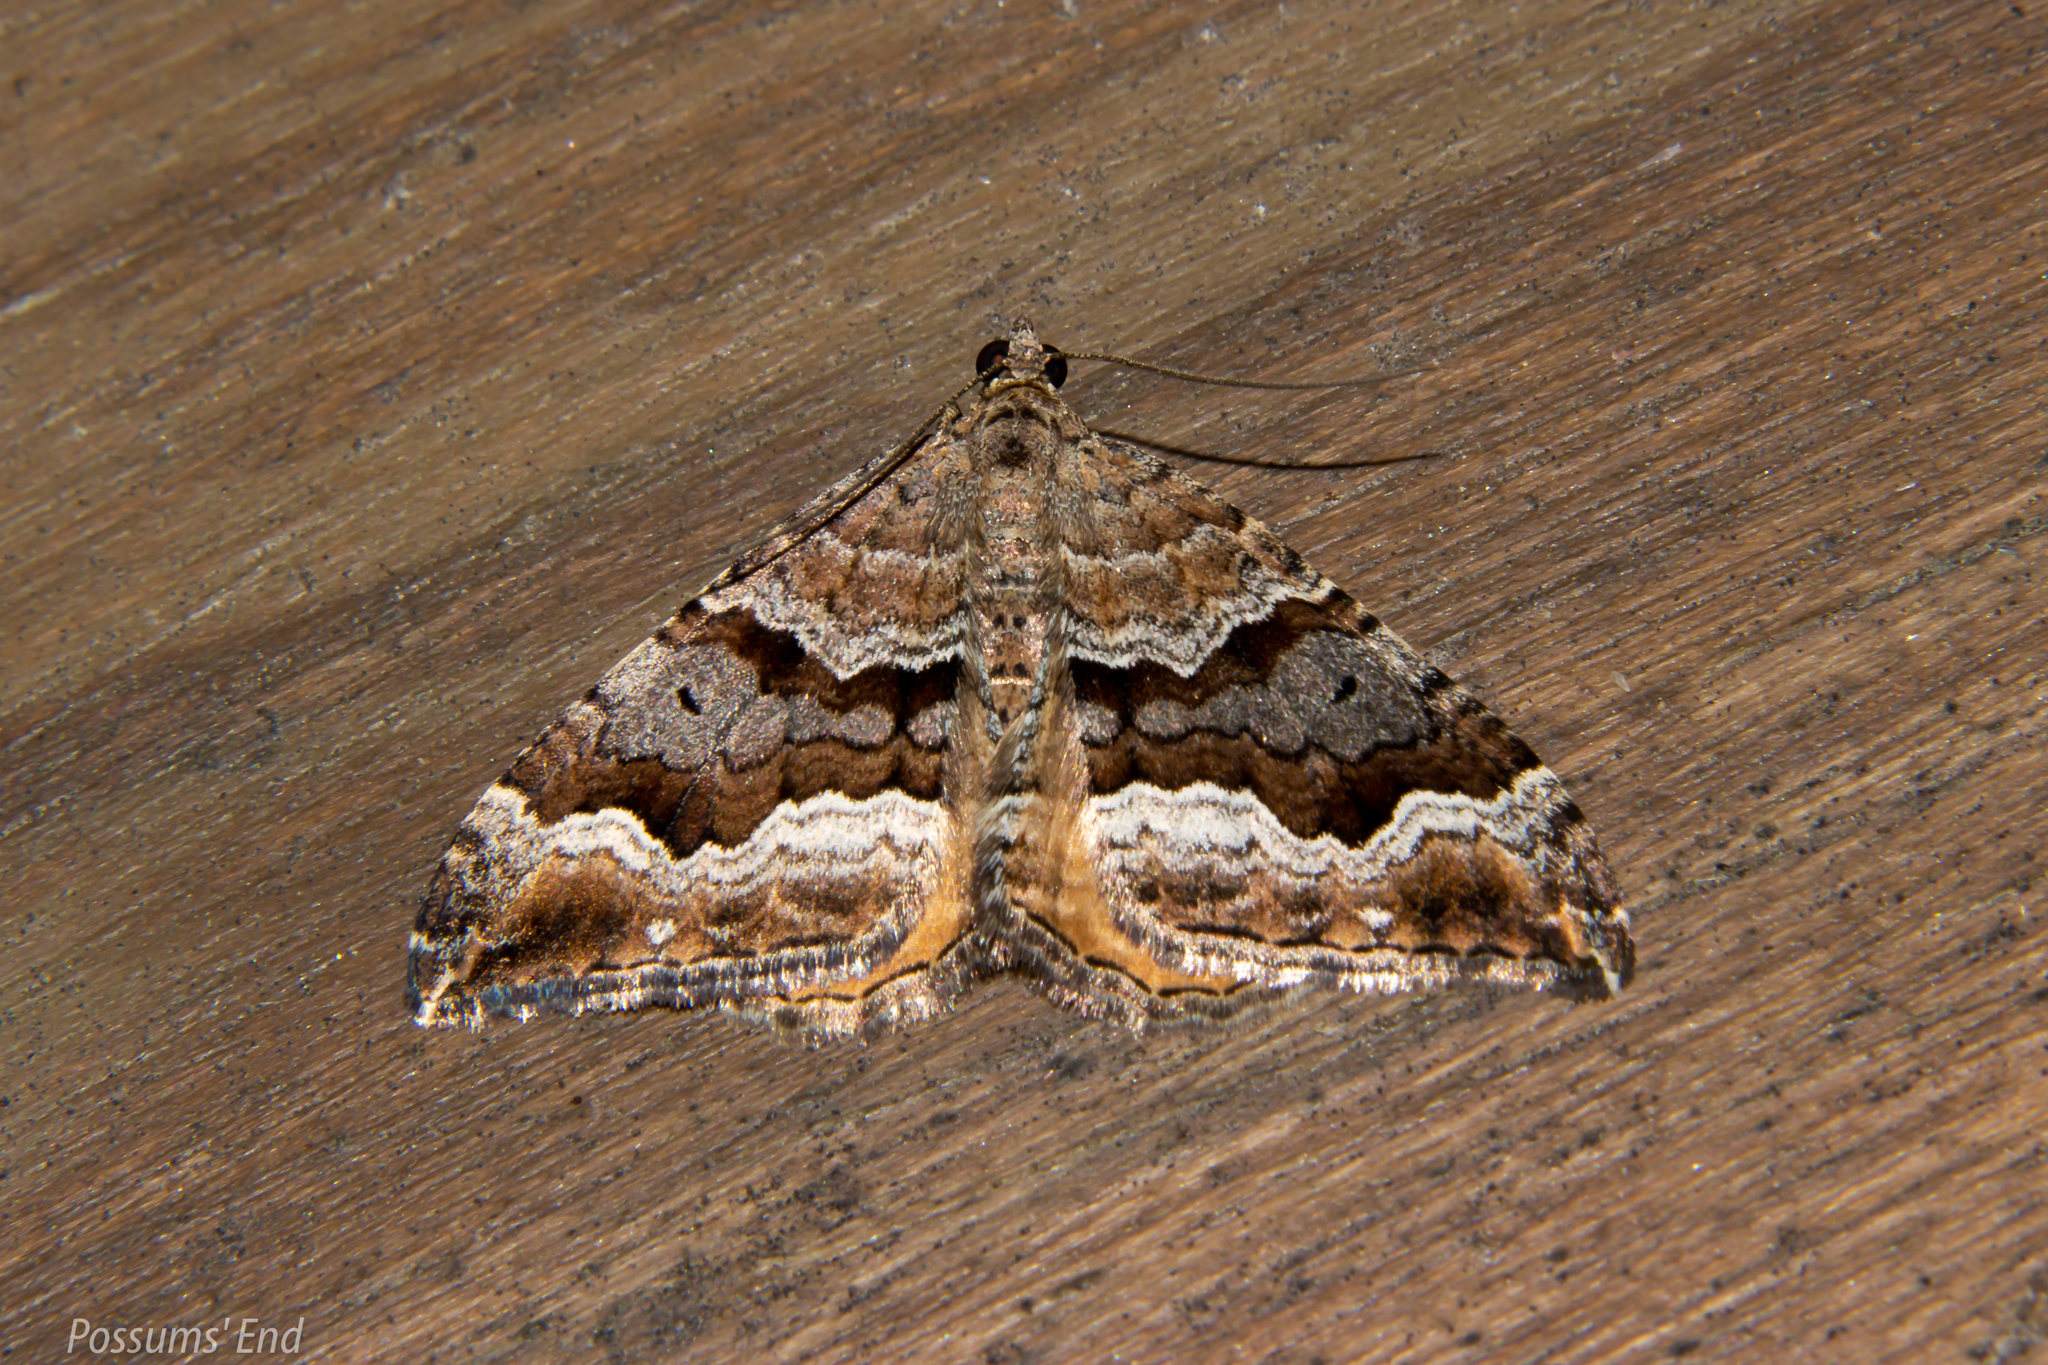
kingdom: Animalia
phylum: Arthropoda
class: Insecta
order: Lepidoptera
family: Geometridae
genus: Hydriomena
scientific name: Hydriomena deltoidata
